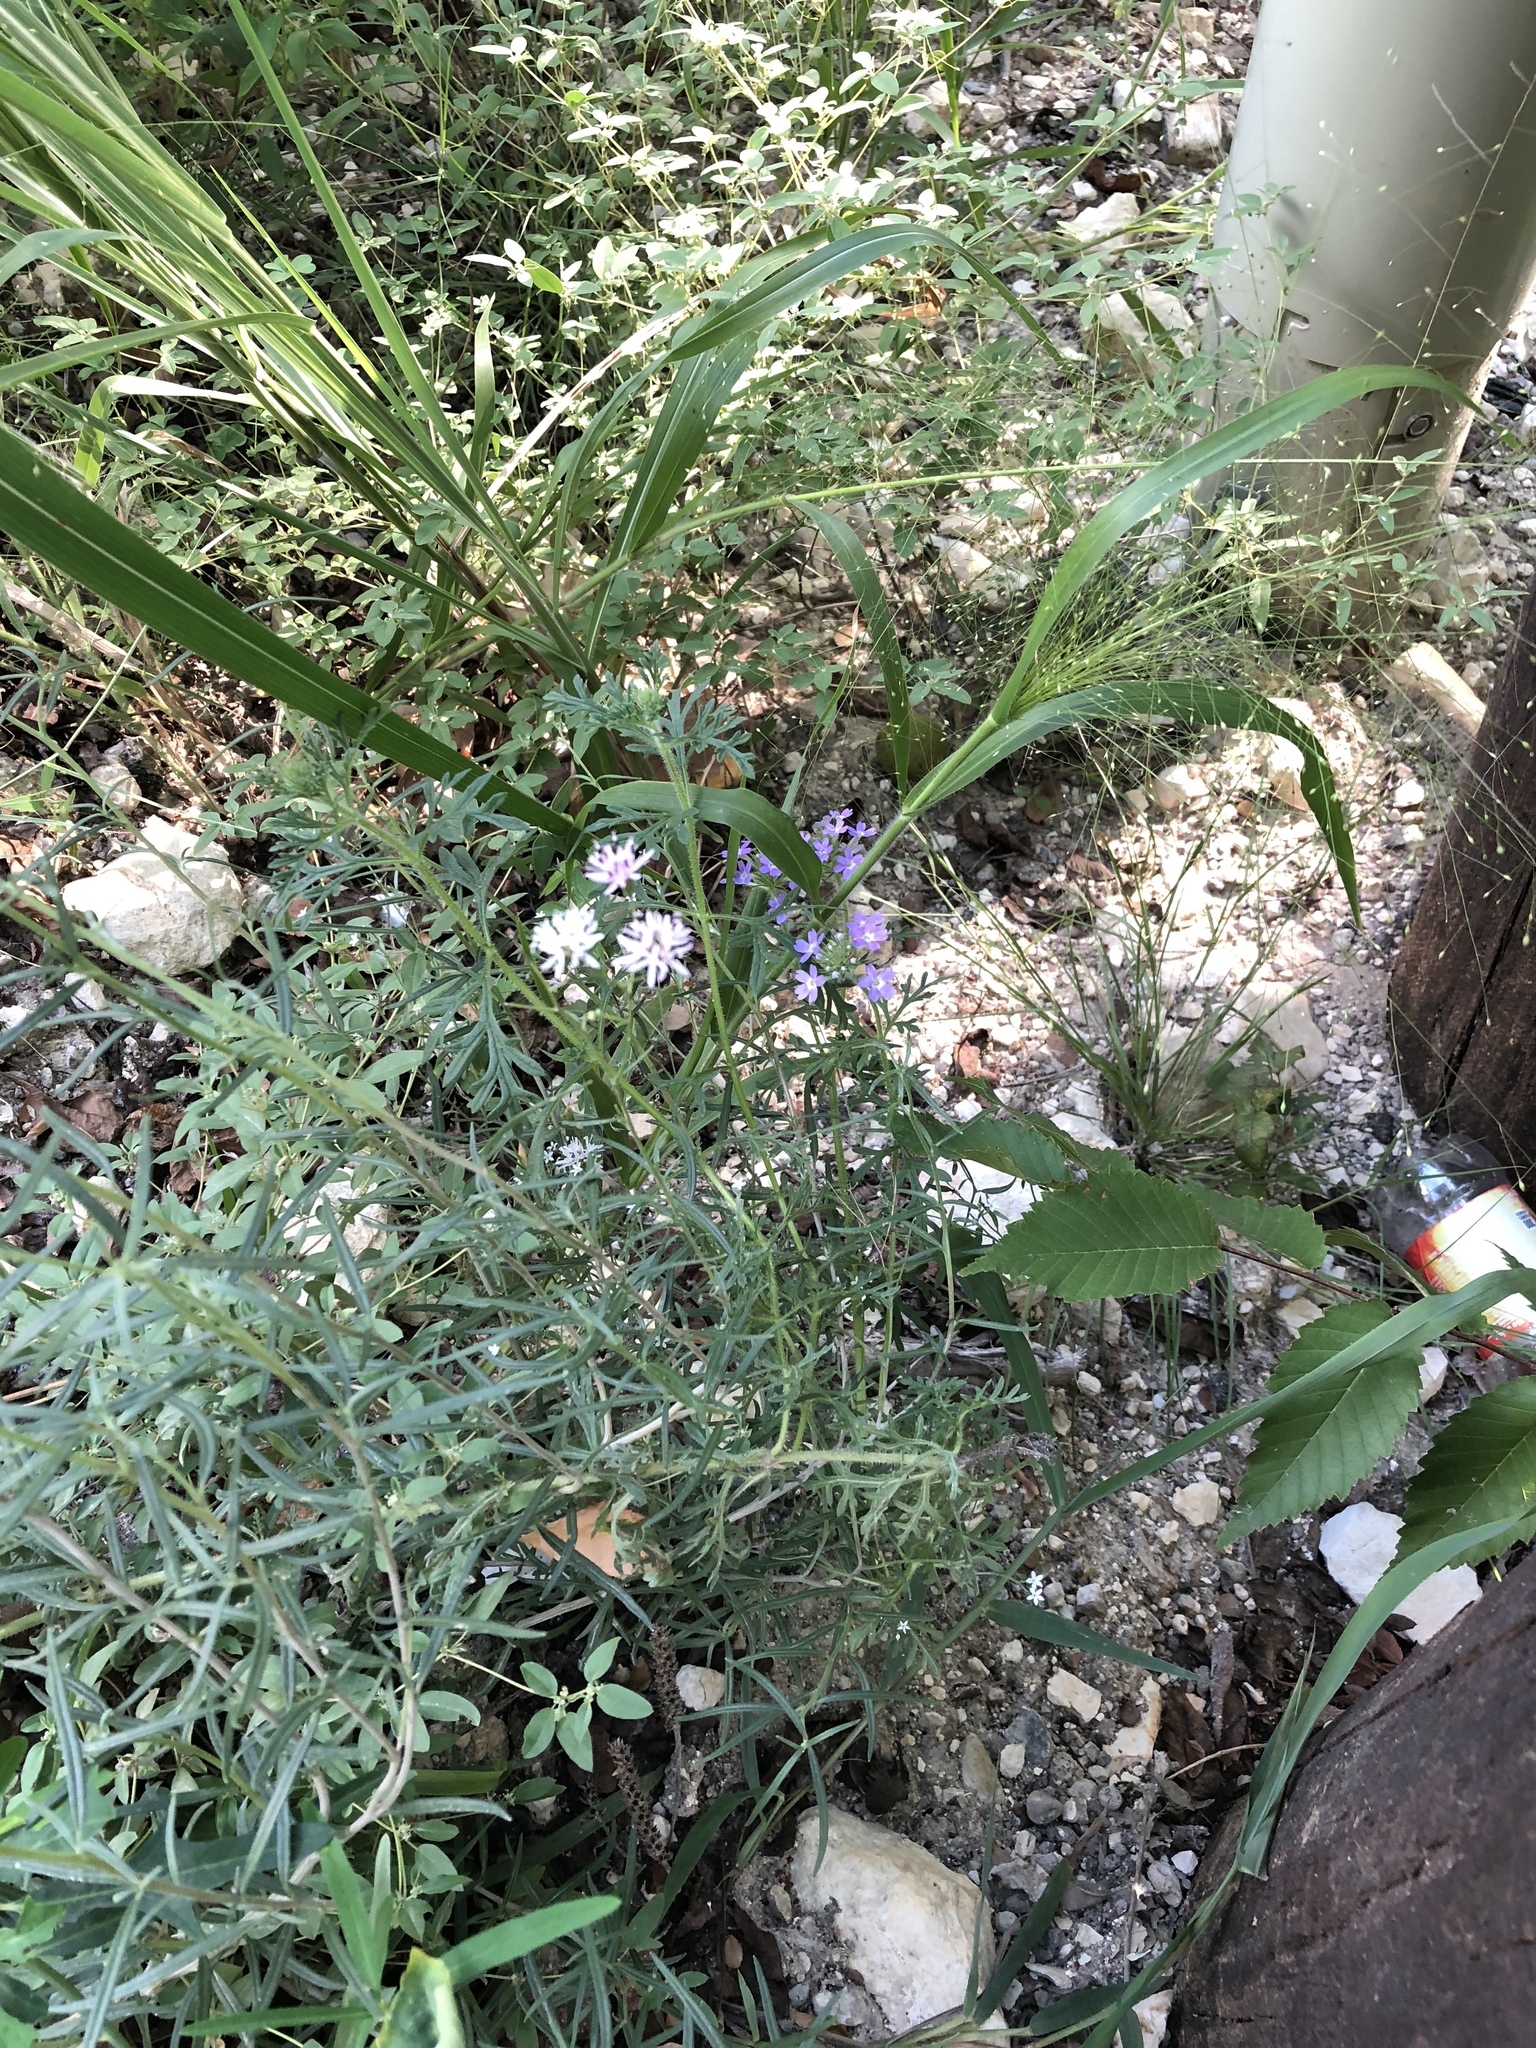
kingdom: Plantae
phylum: Tracheophyta
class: Magnoliopsida
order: Asterales
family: Asteraceae
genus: Palafoxia
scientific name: Palafoxia callosa
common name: Small palafox
